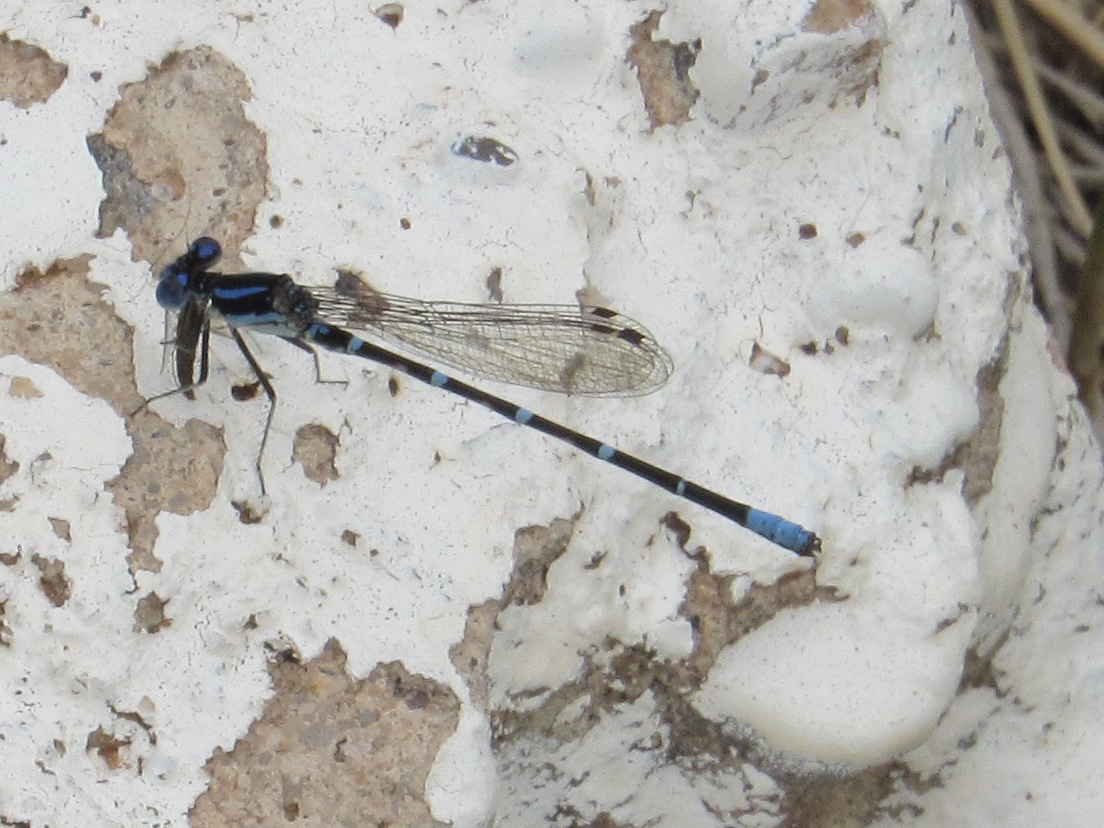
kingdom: Animalia
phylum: Arthropoda
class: Insecta
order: Odonata
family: Coenagrionidae
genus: Argia
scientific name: Argia sedula
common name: Blue-ringed dancer
